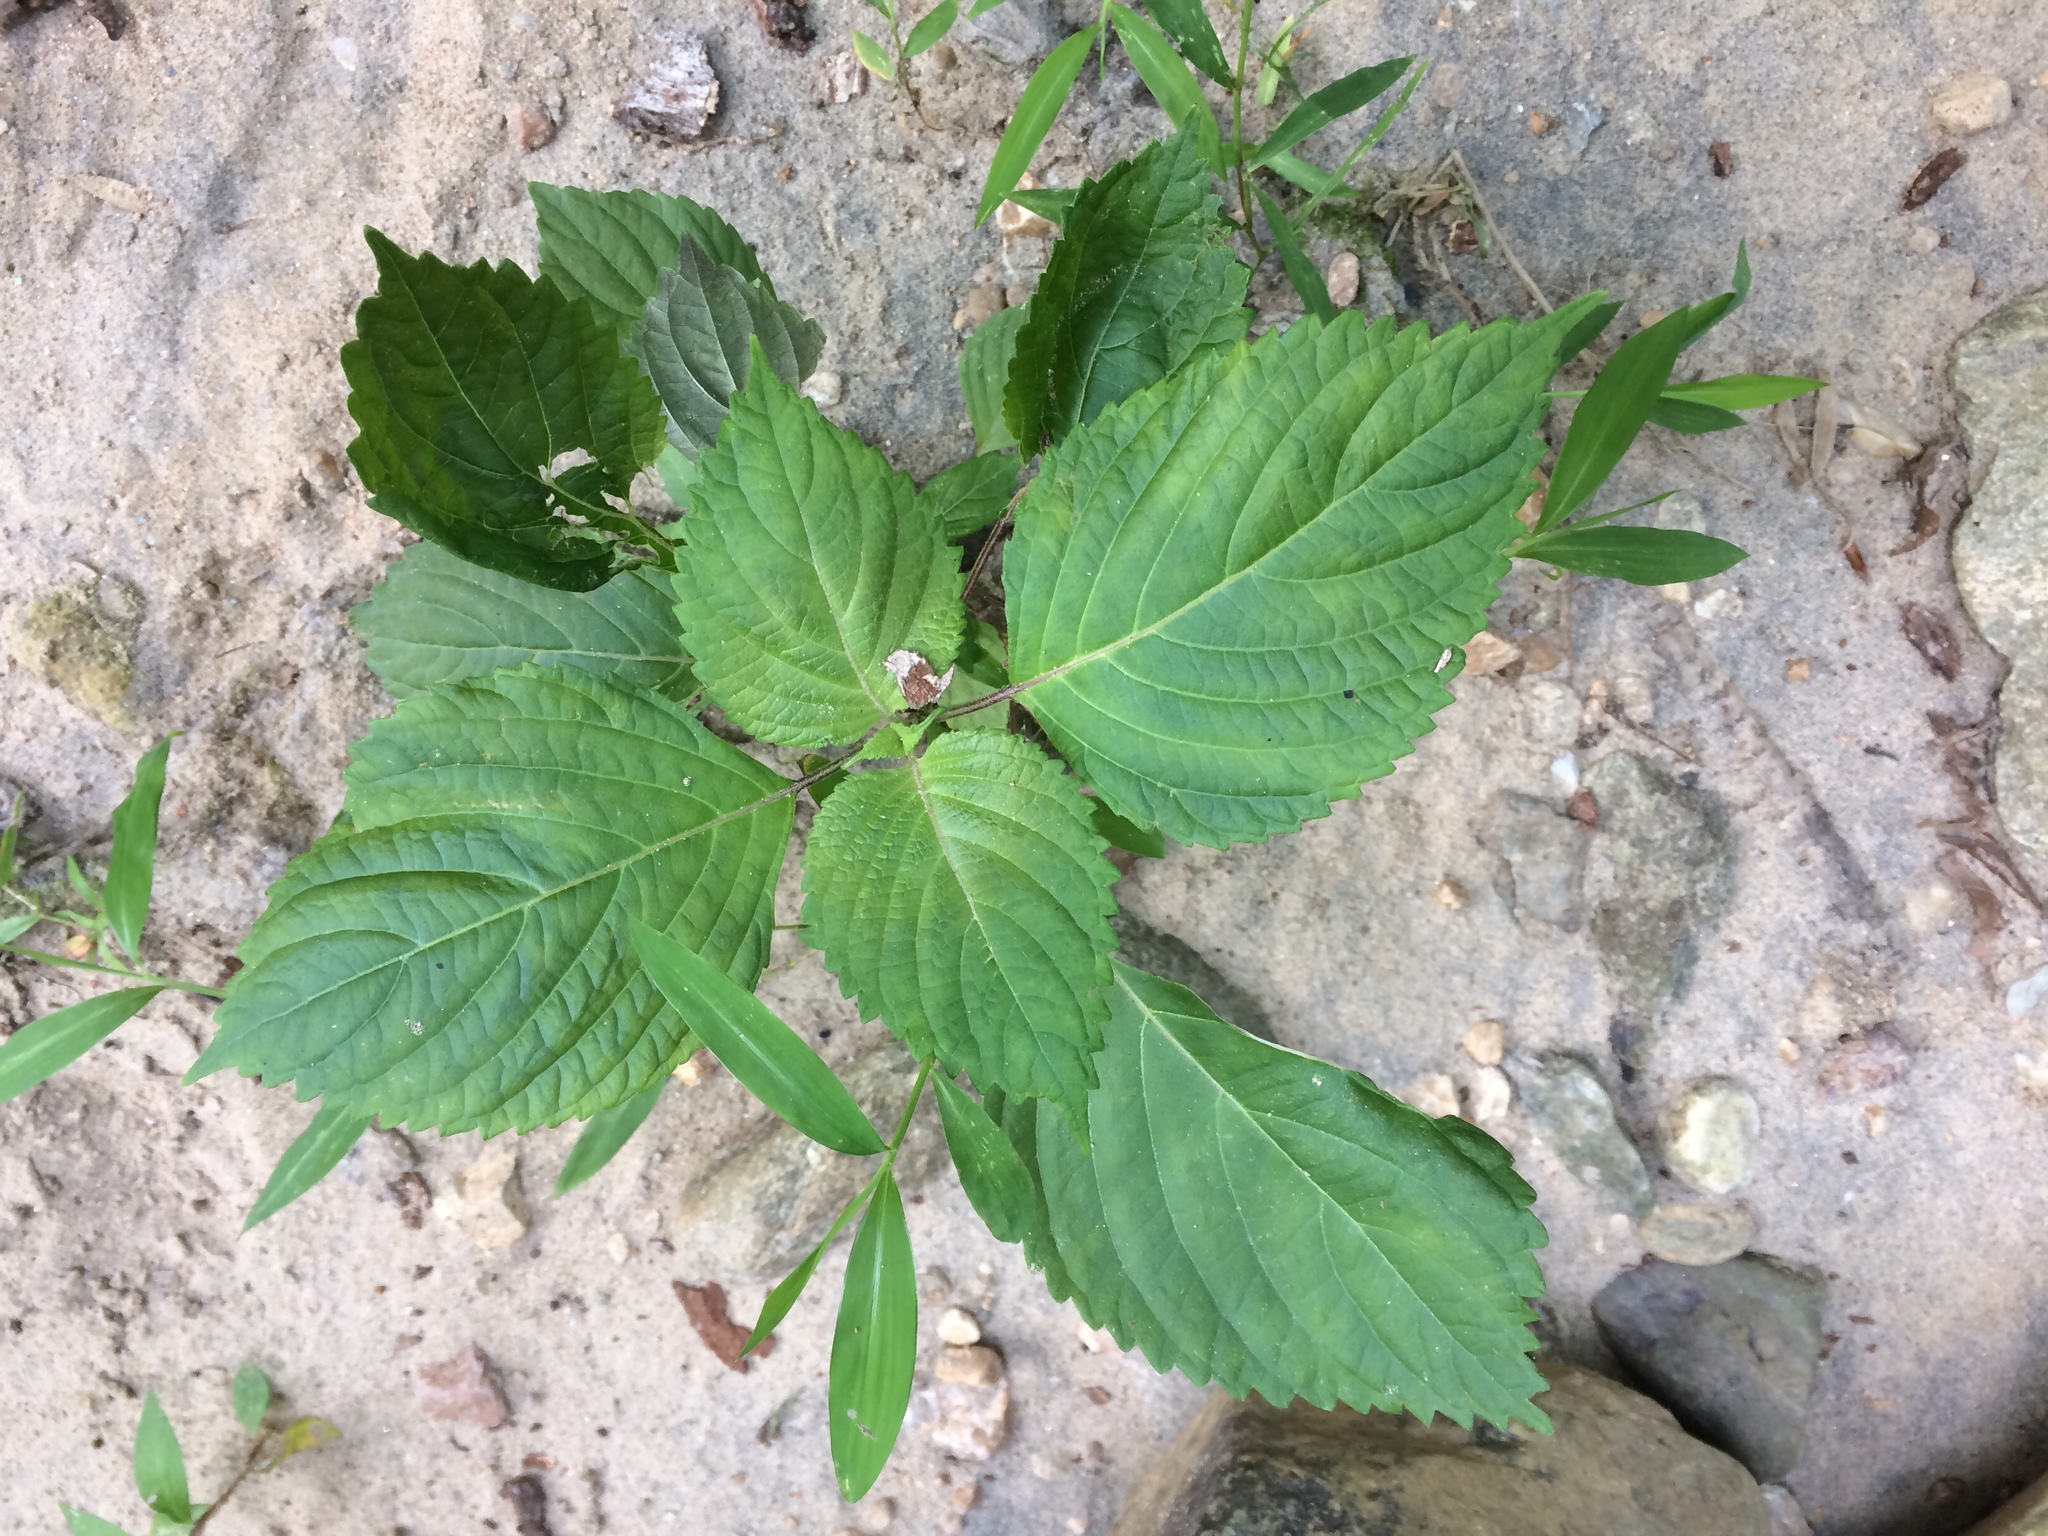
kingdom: Plantae
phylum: Tracheophyta
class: Magnoliopsida
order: Lamiales
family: Lamiaceae
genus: Perilla
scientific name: Perilla frutescens
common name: Perilla
